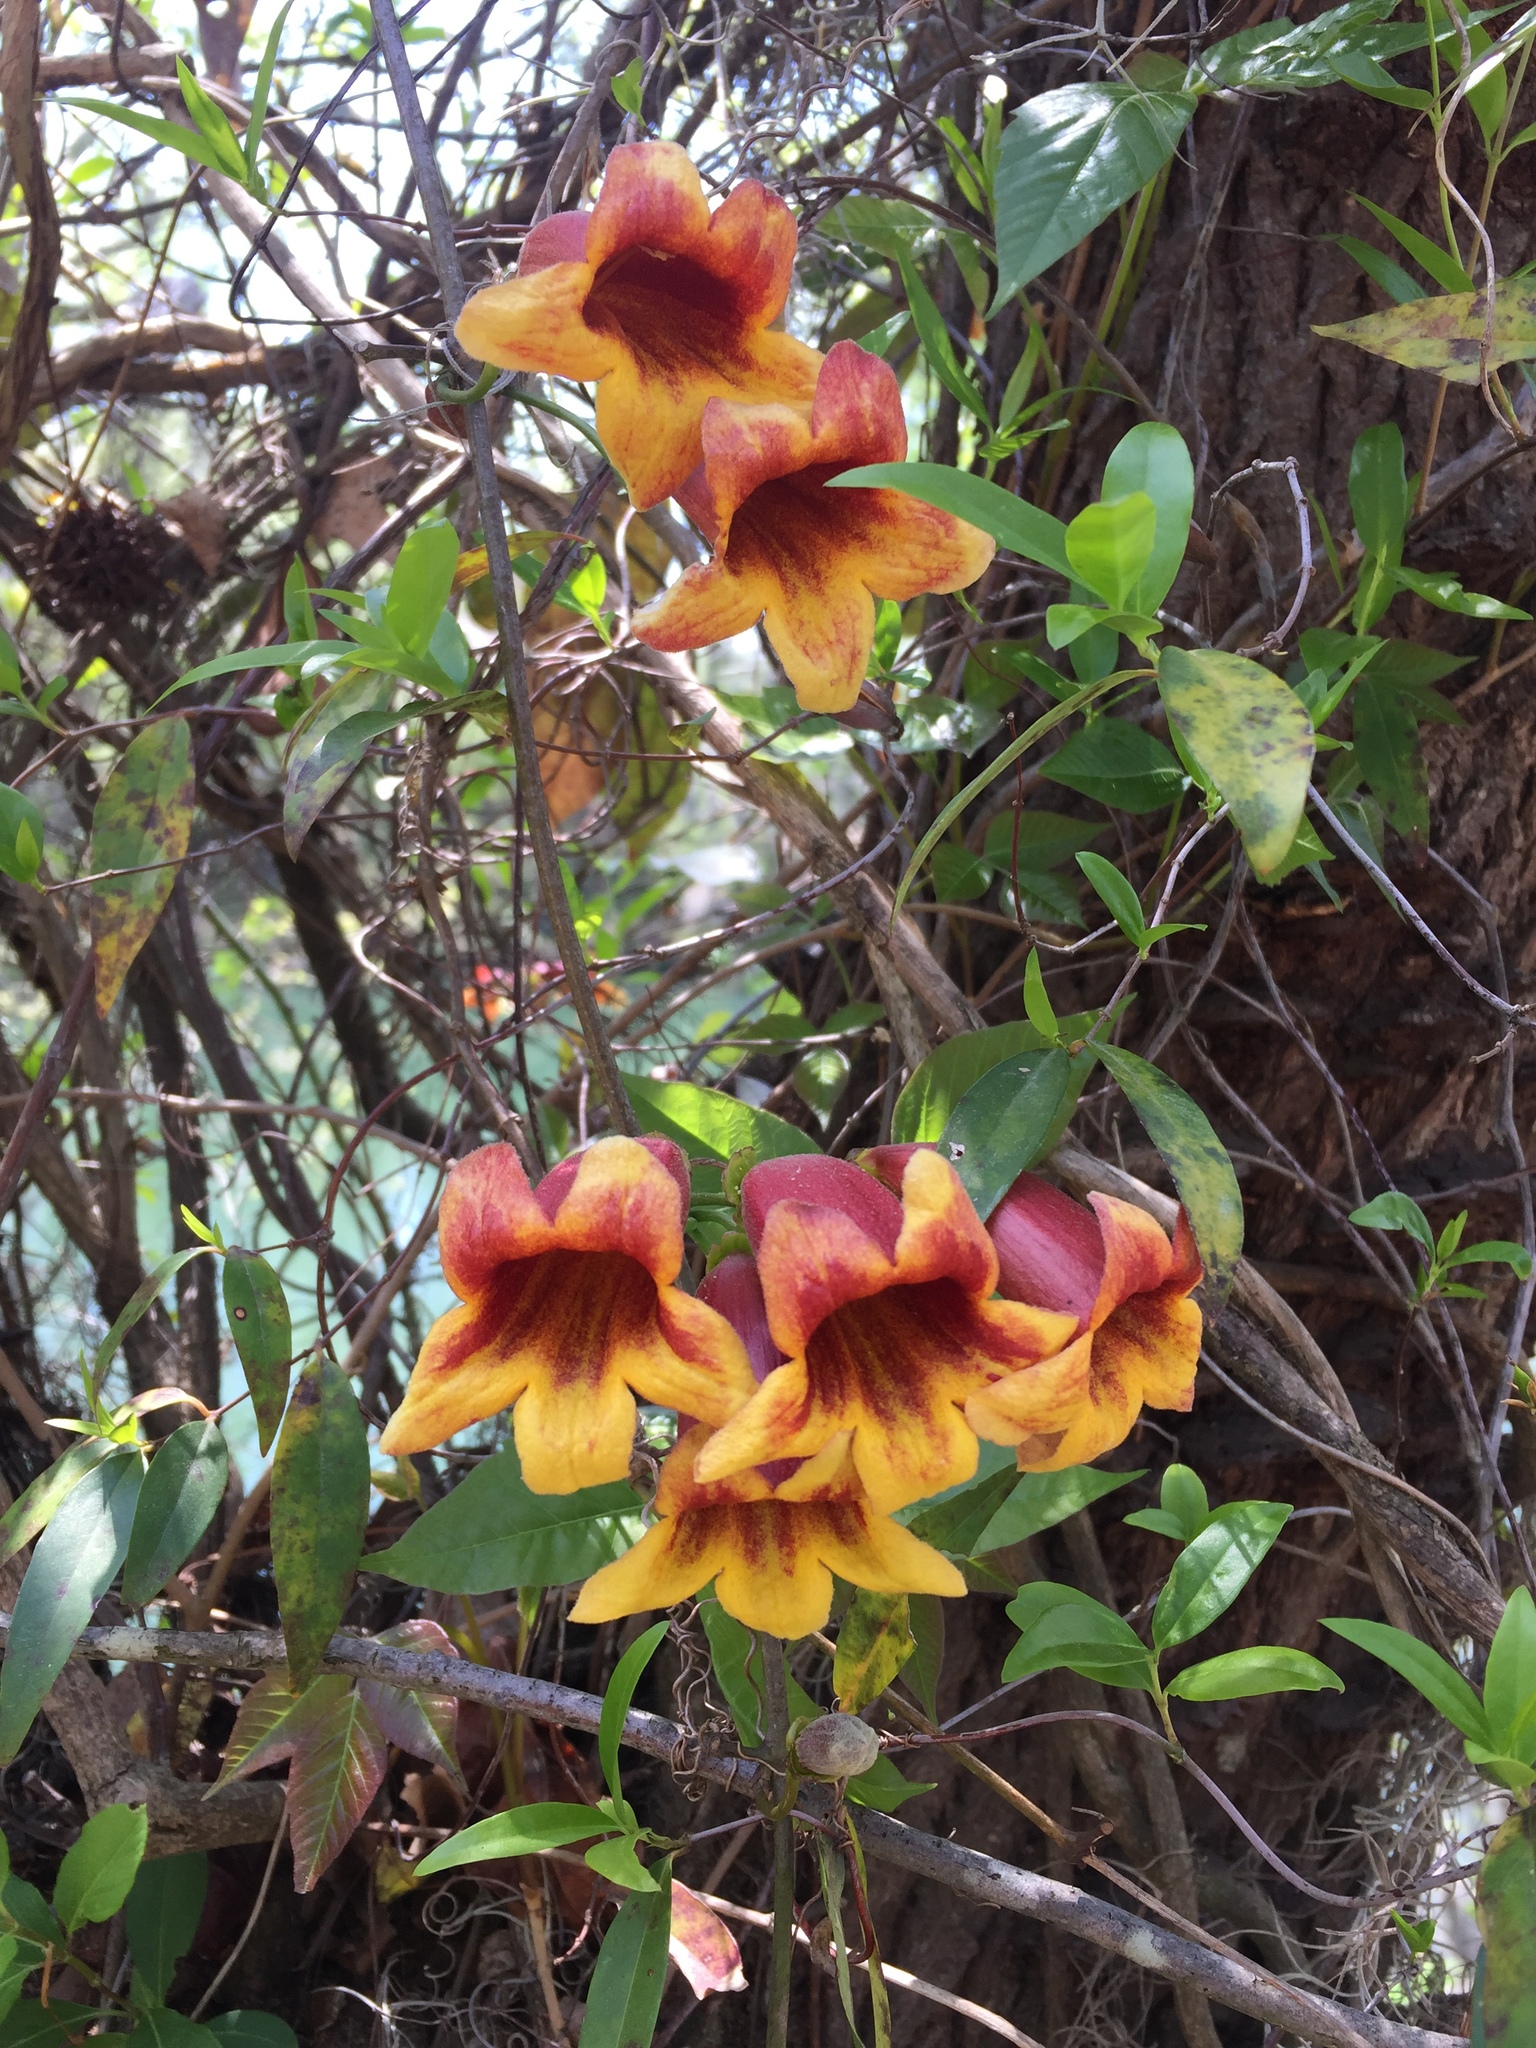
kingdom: Plantae
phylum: Tracheophyta
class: Magnoliopsida
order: Lamiales
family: Bignoniaceae
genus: Bignonia
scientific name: Bignonia capreolata
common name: Crossvine
